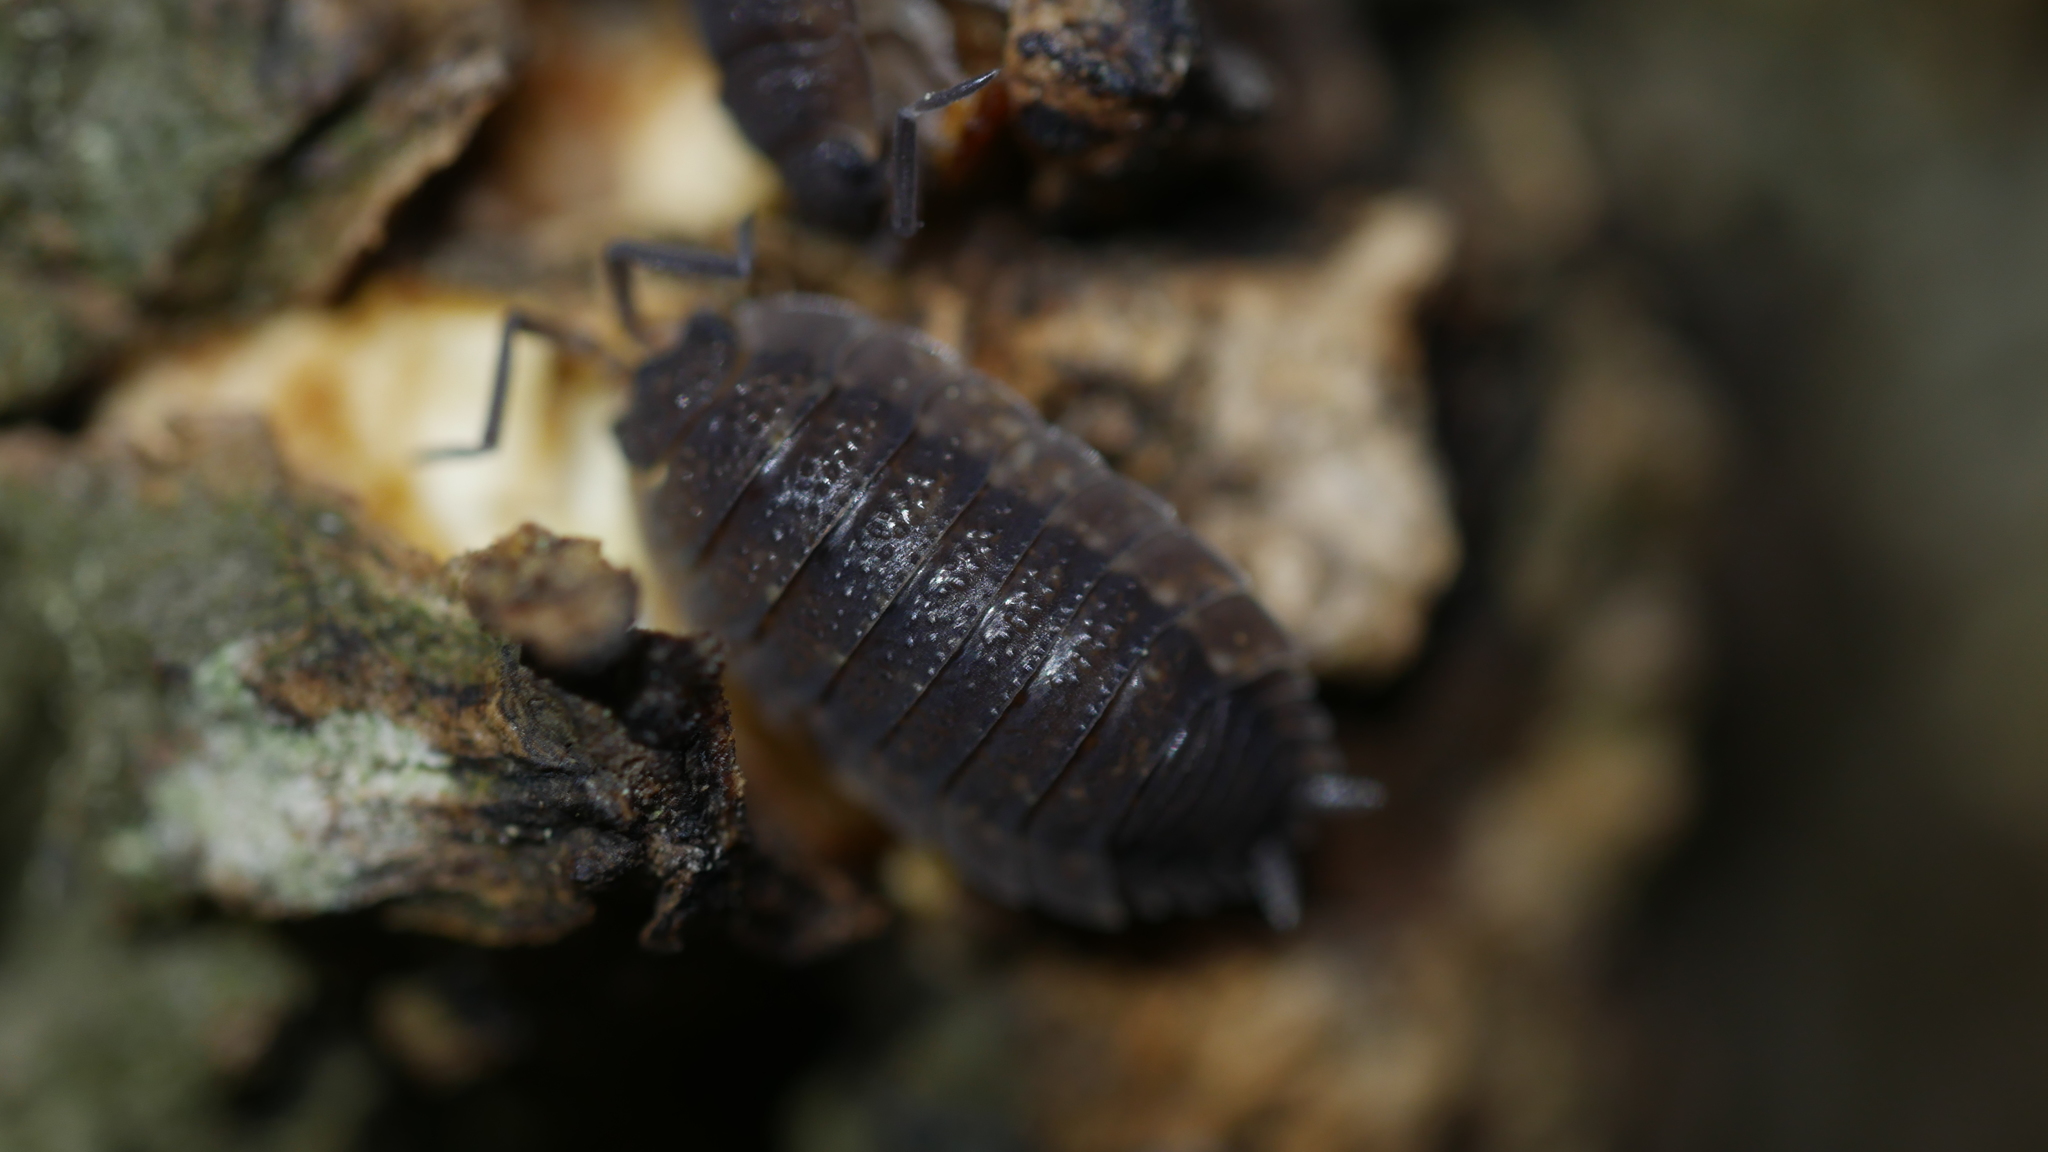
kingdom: Animalia
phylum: Arthropoda
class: Malacostraca
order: Isopoda
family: Porcellionidae
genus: Porcellio
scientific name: Porcellio scaber
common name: Common rough woodlouse
